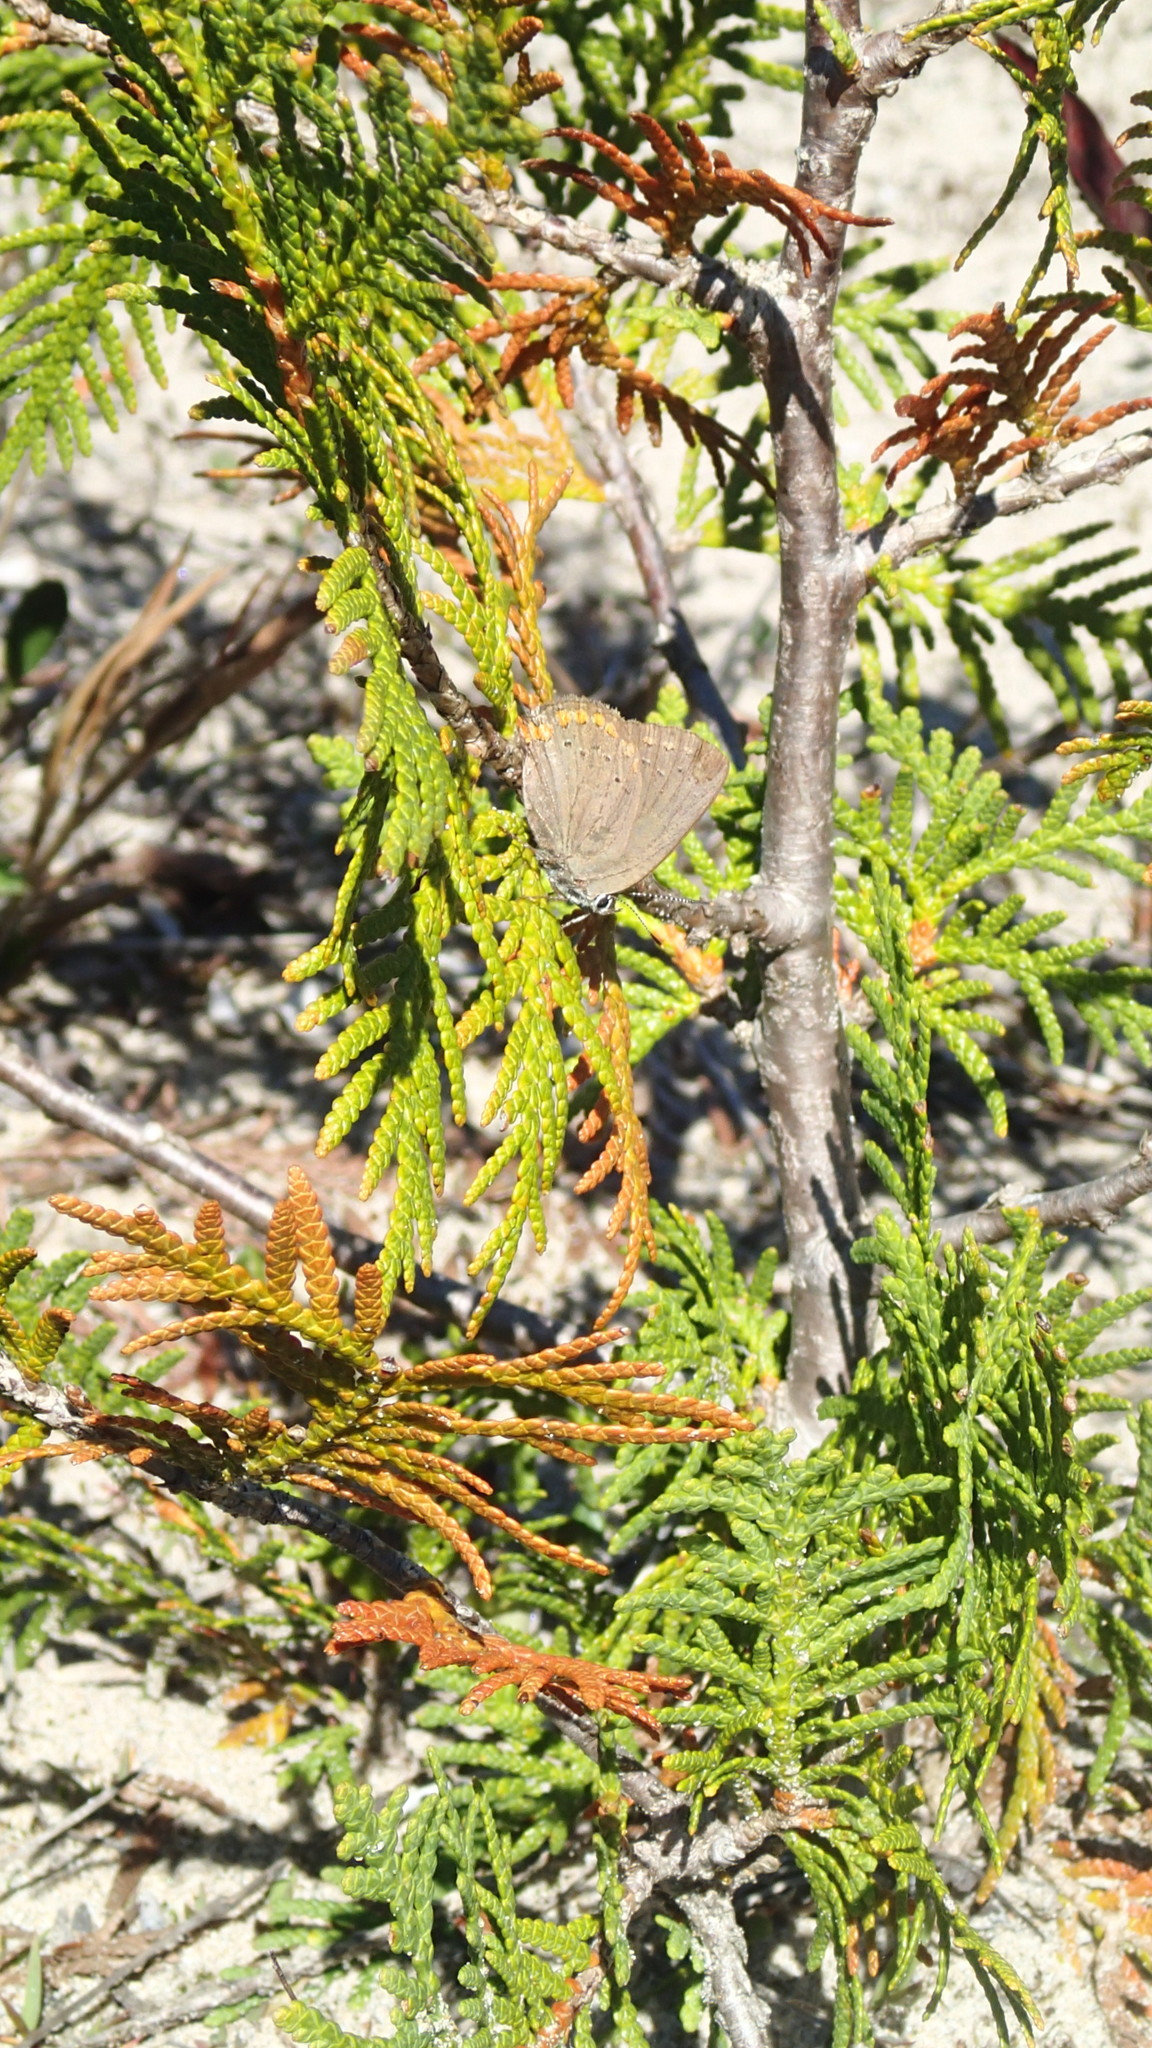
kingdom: Animalia
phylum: Arthropoda
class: Insecta
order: Lepidoptera
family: Lycaenidae
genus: Harkenclenus
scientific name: Harkenclenus titus
